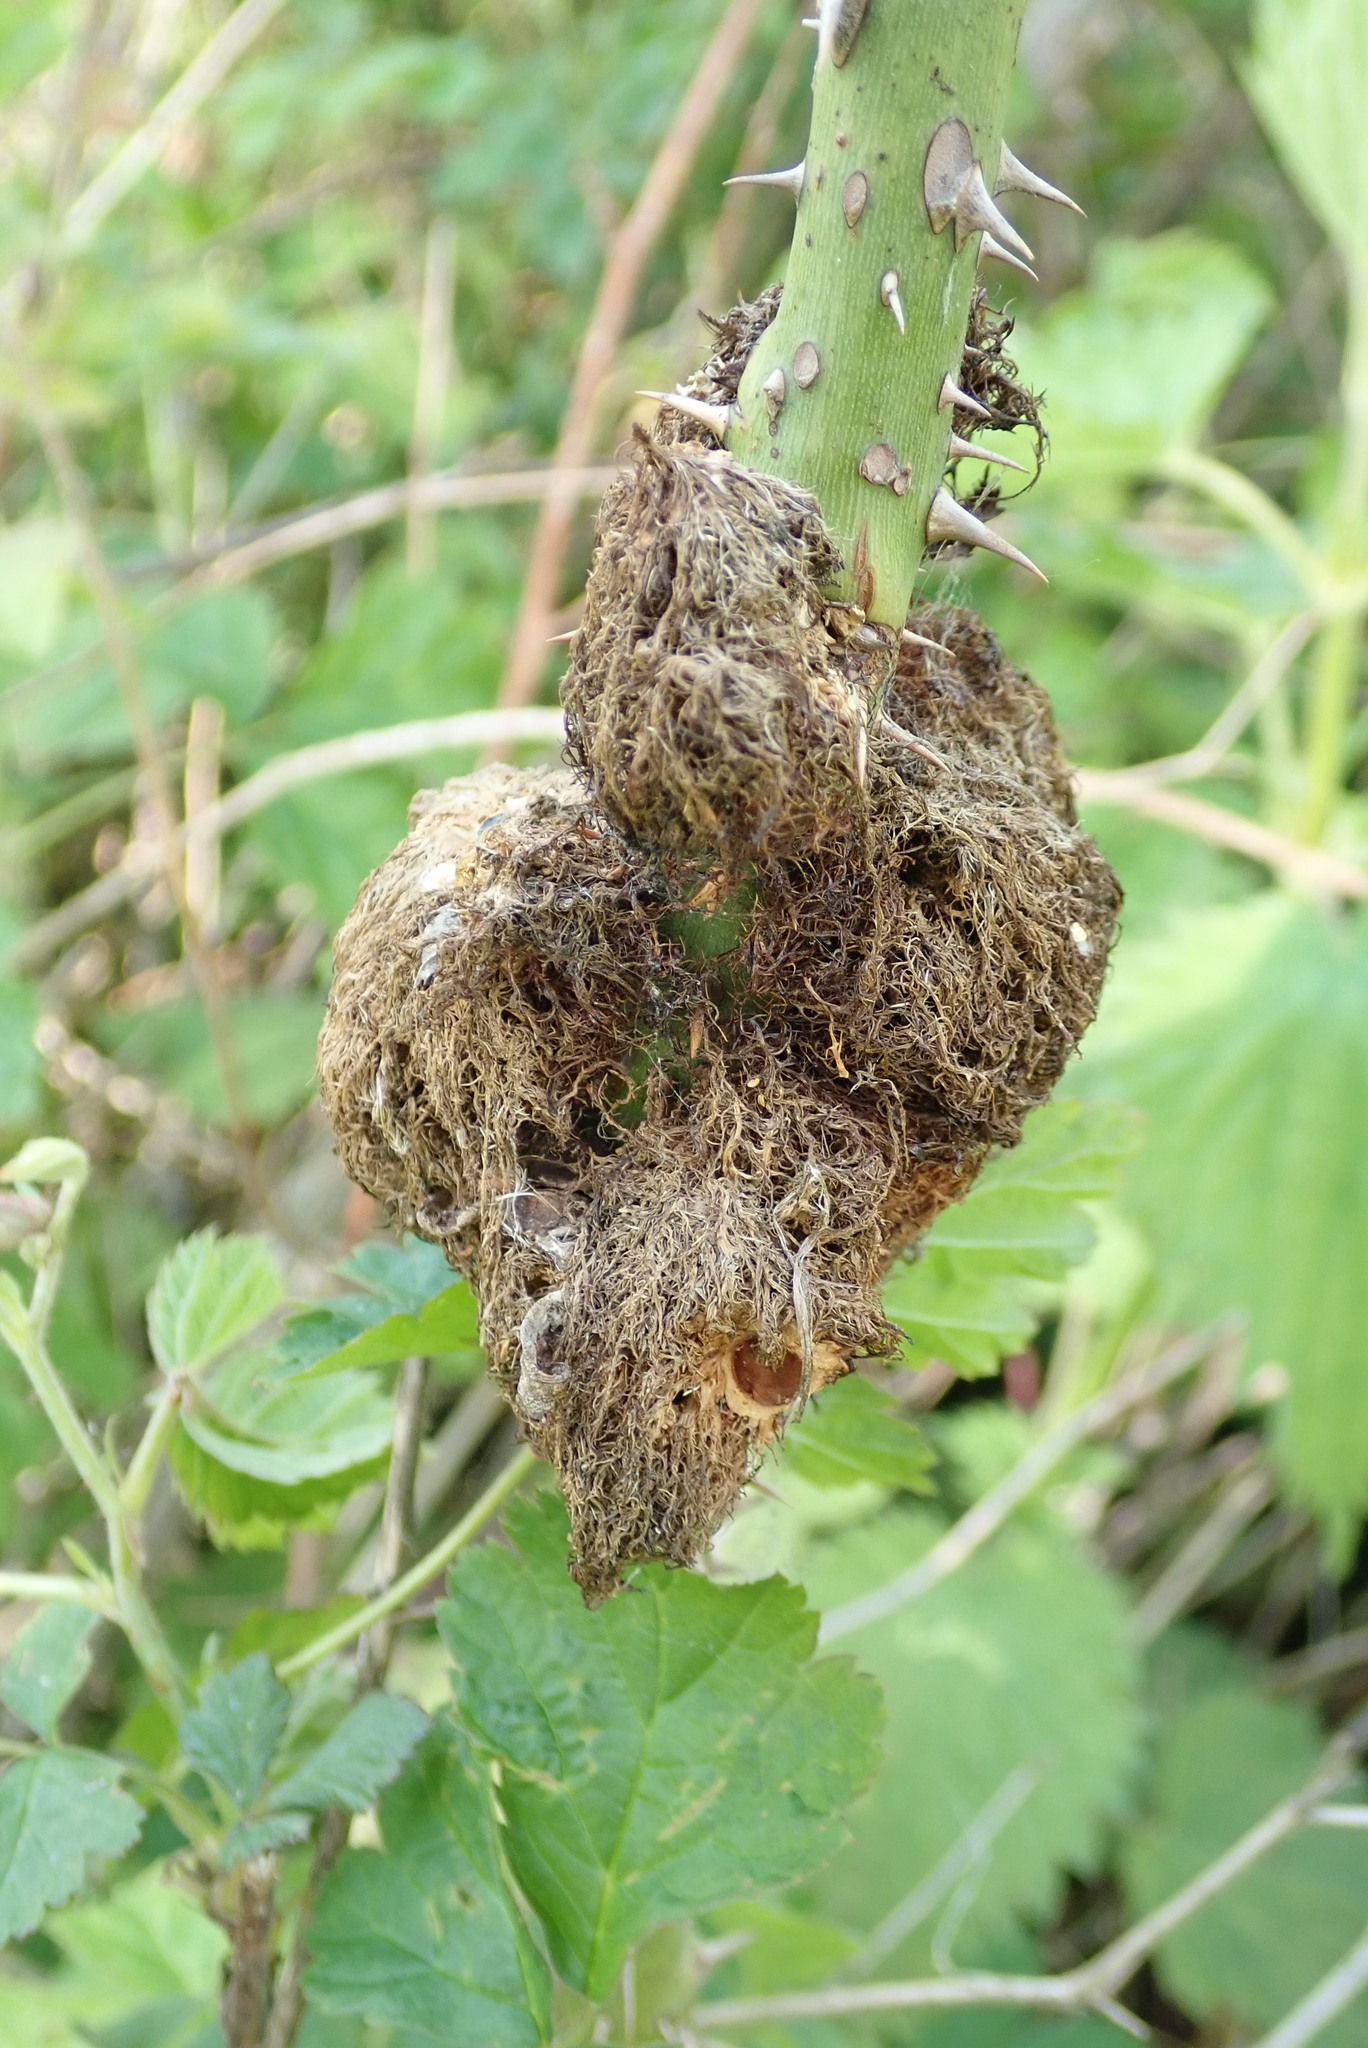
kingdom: Animalia
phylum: Arthropoda
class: Insecta
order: Hymenoptera
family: Cynipidae
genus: Diplolepis
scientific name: Diplolepis rosae
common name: Bedeguar gall
